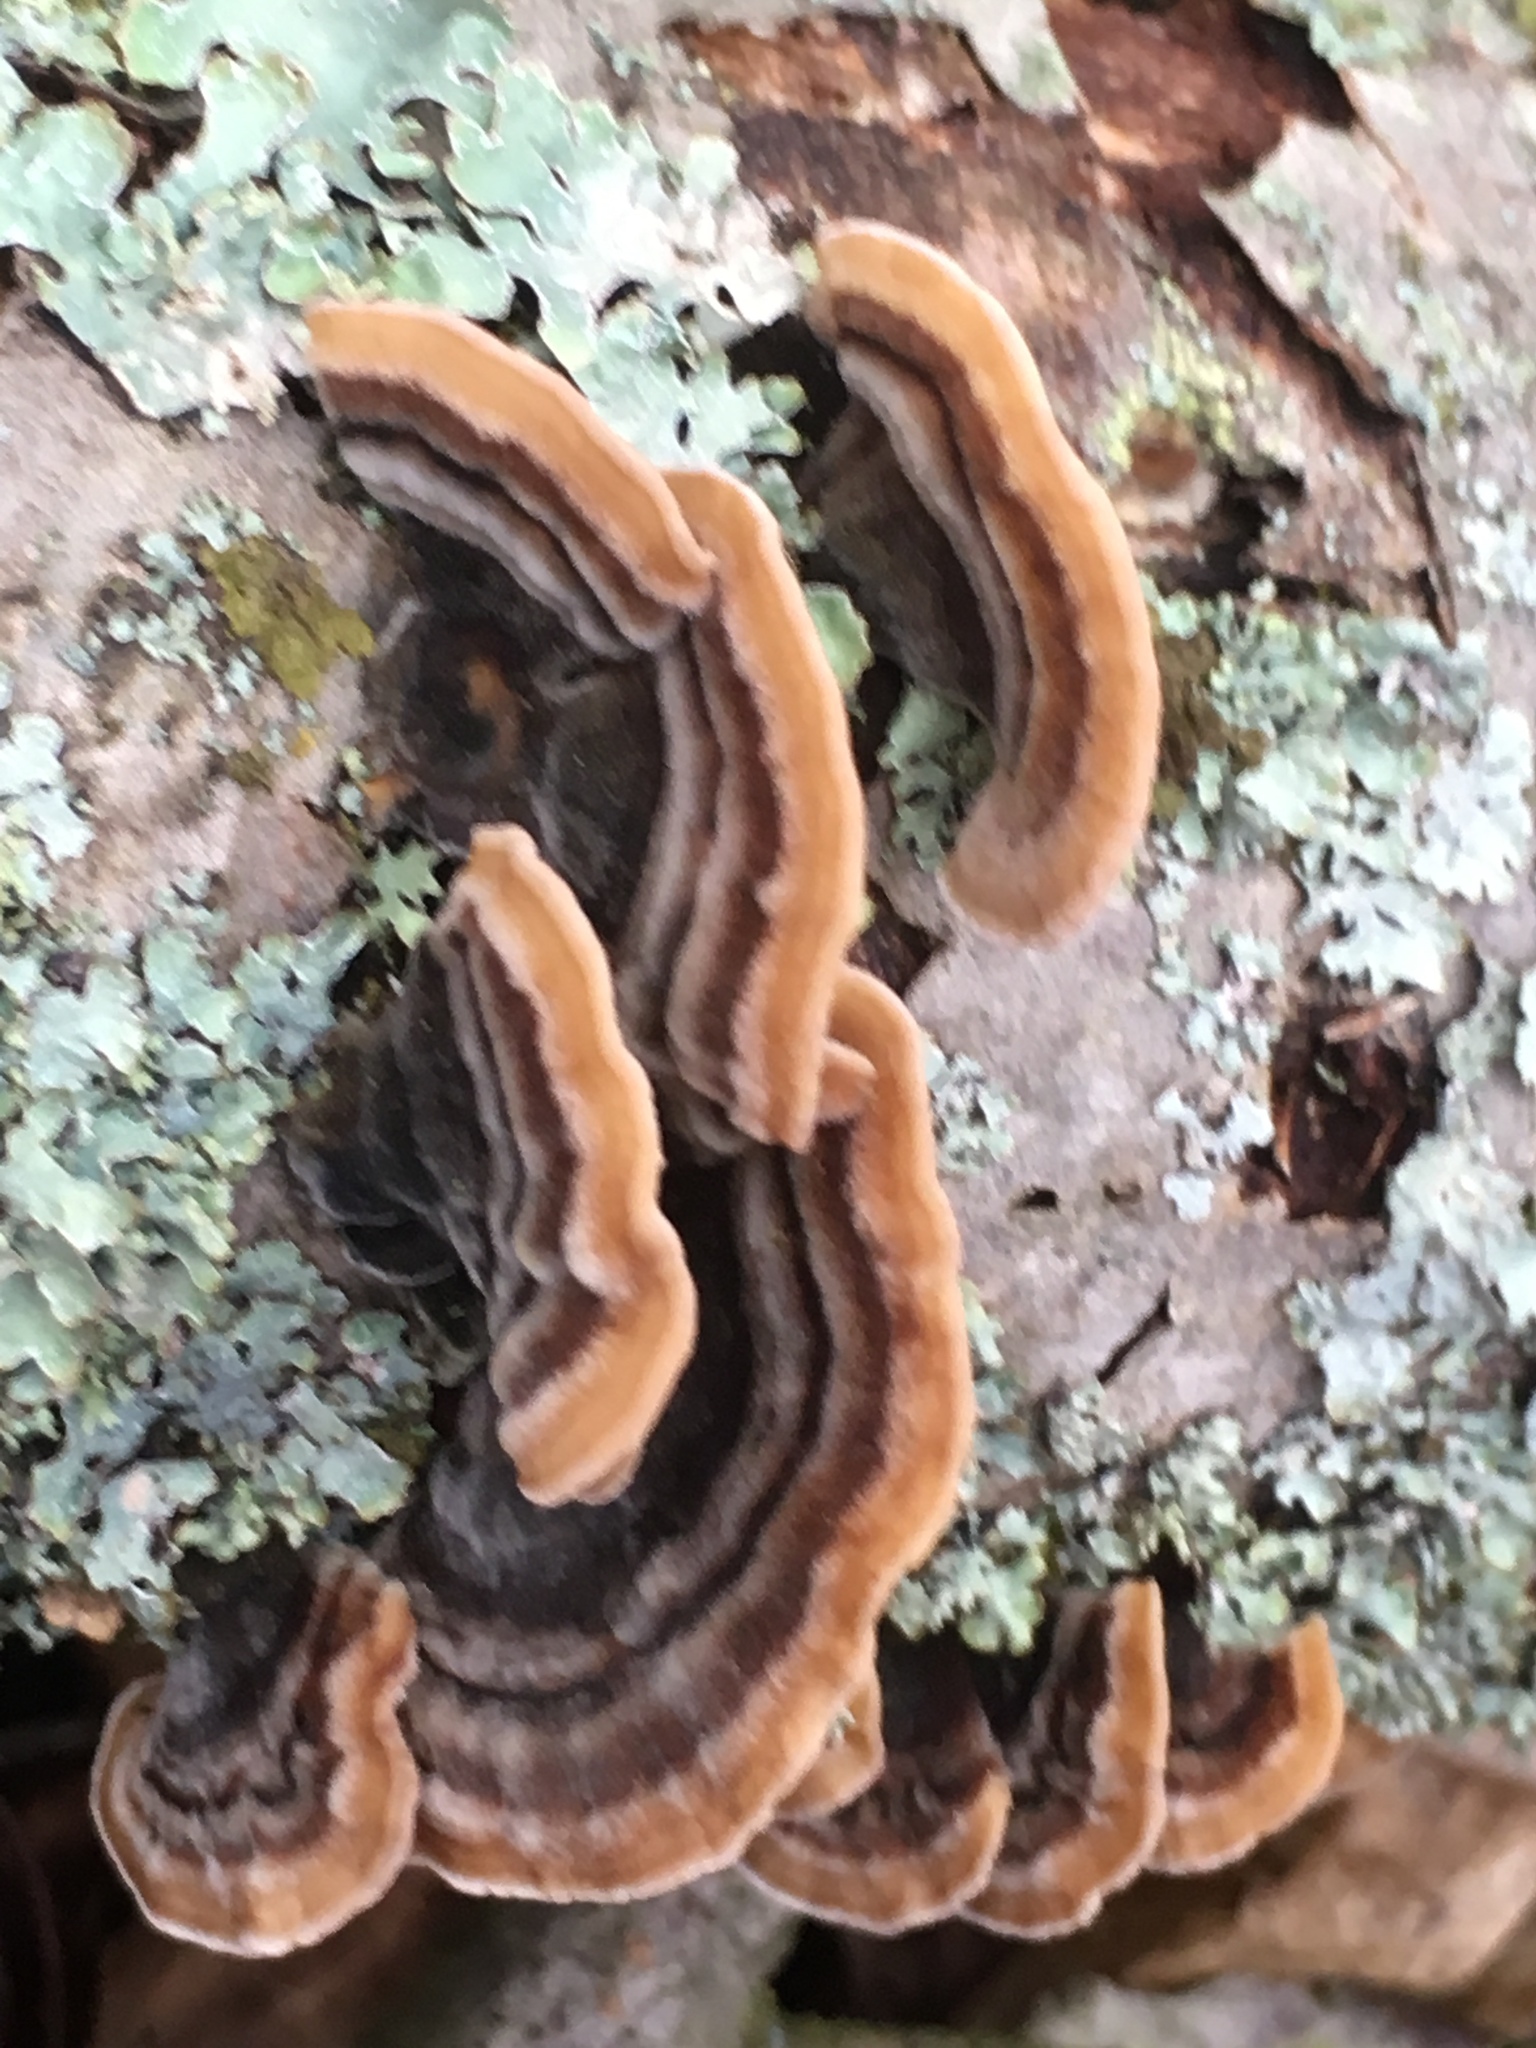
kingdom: Fungi
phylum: Basidiomycota
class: Agaricomycetes
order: Polyporales
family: Polyporaceae
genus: Trametes
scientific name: Trametes versicolor
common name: Turkeytail
